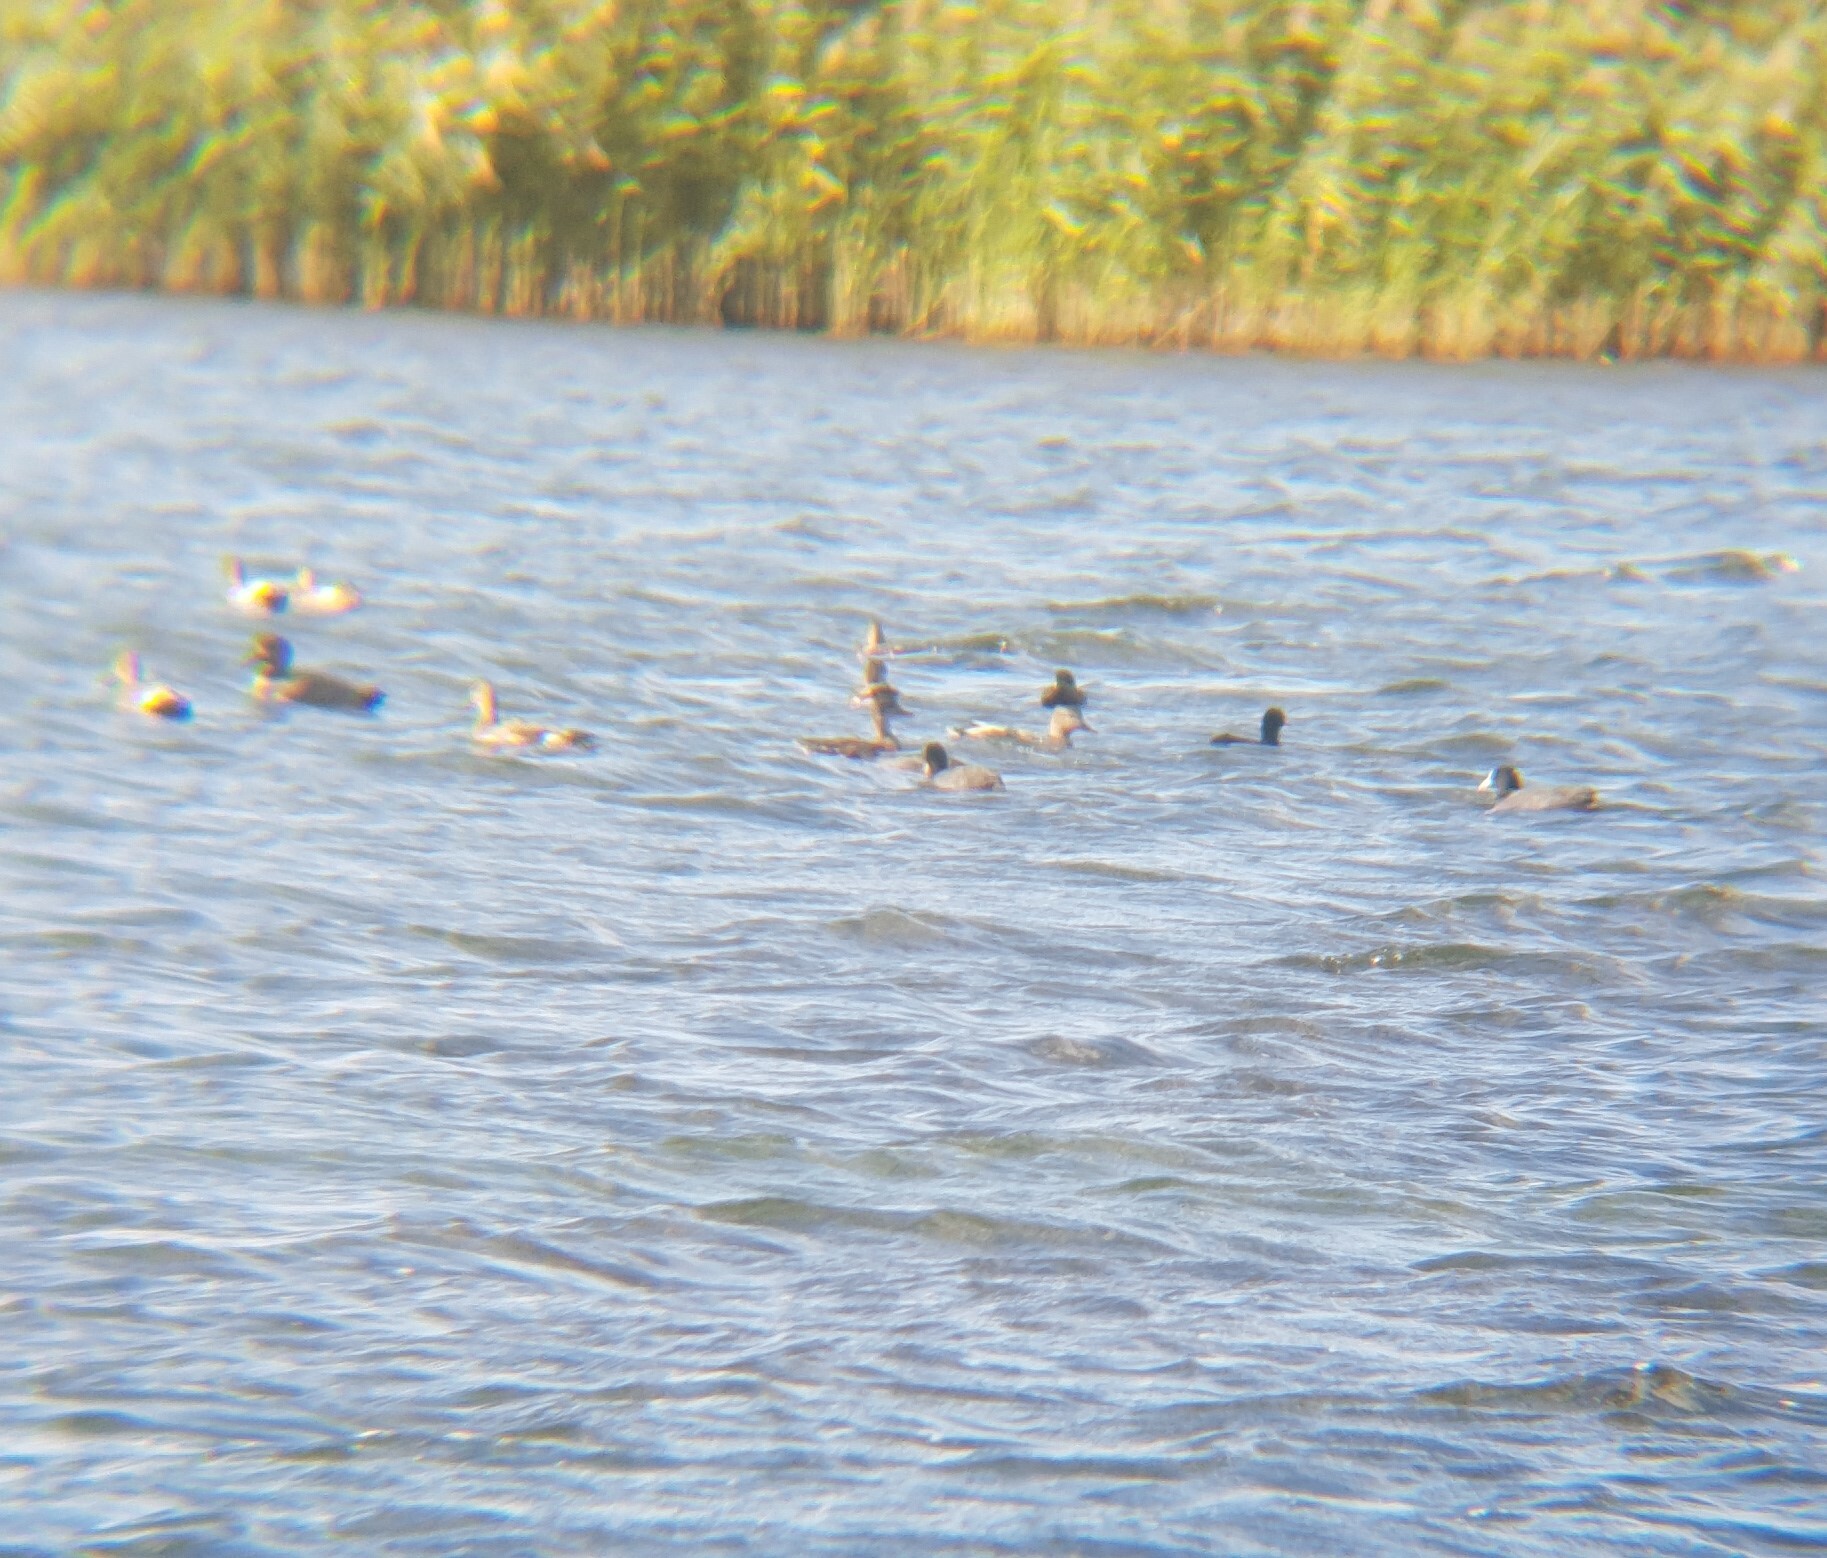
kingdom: Animalia
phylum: Chordata
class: Aves
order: Anseriformes
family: Anatidae
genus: Mareca
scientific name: Mareca strepera
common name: Gadwall
